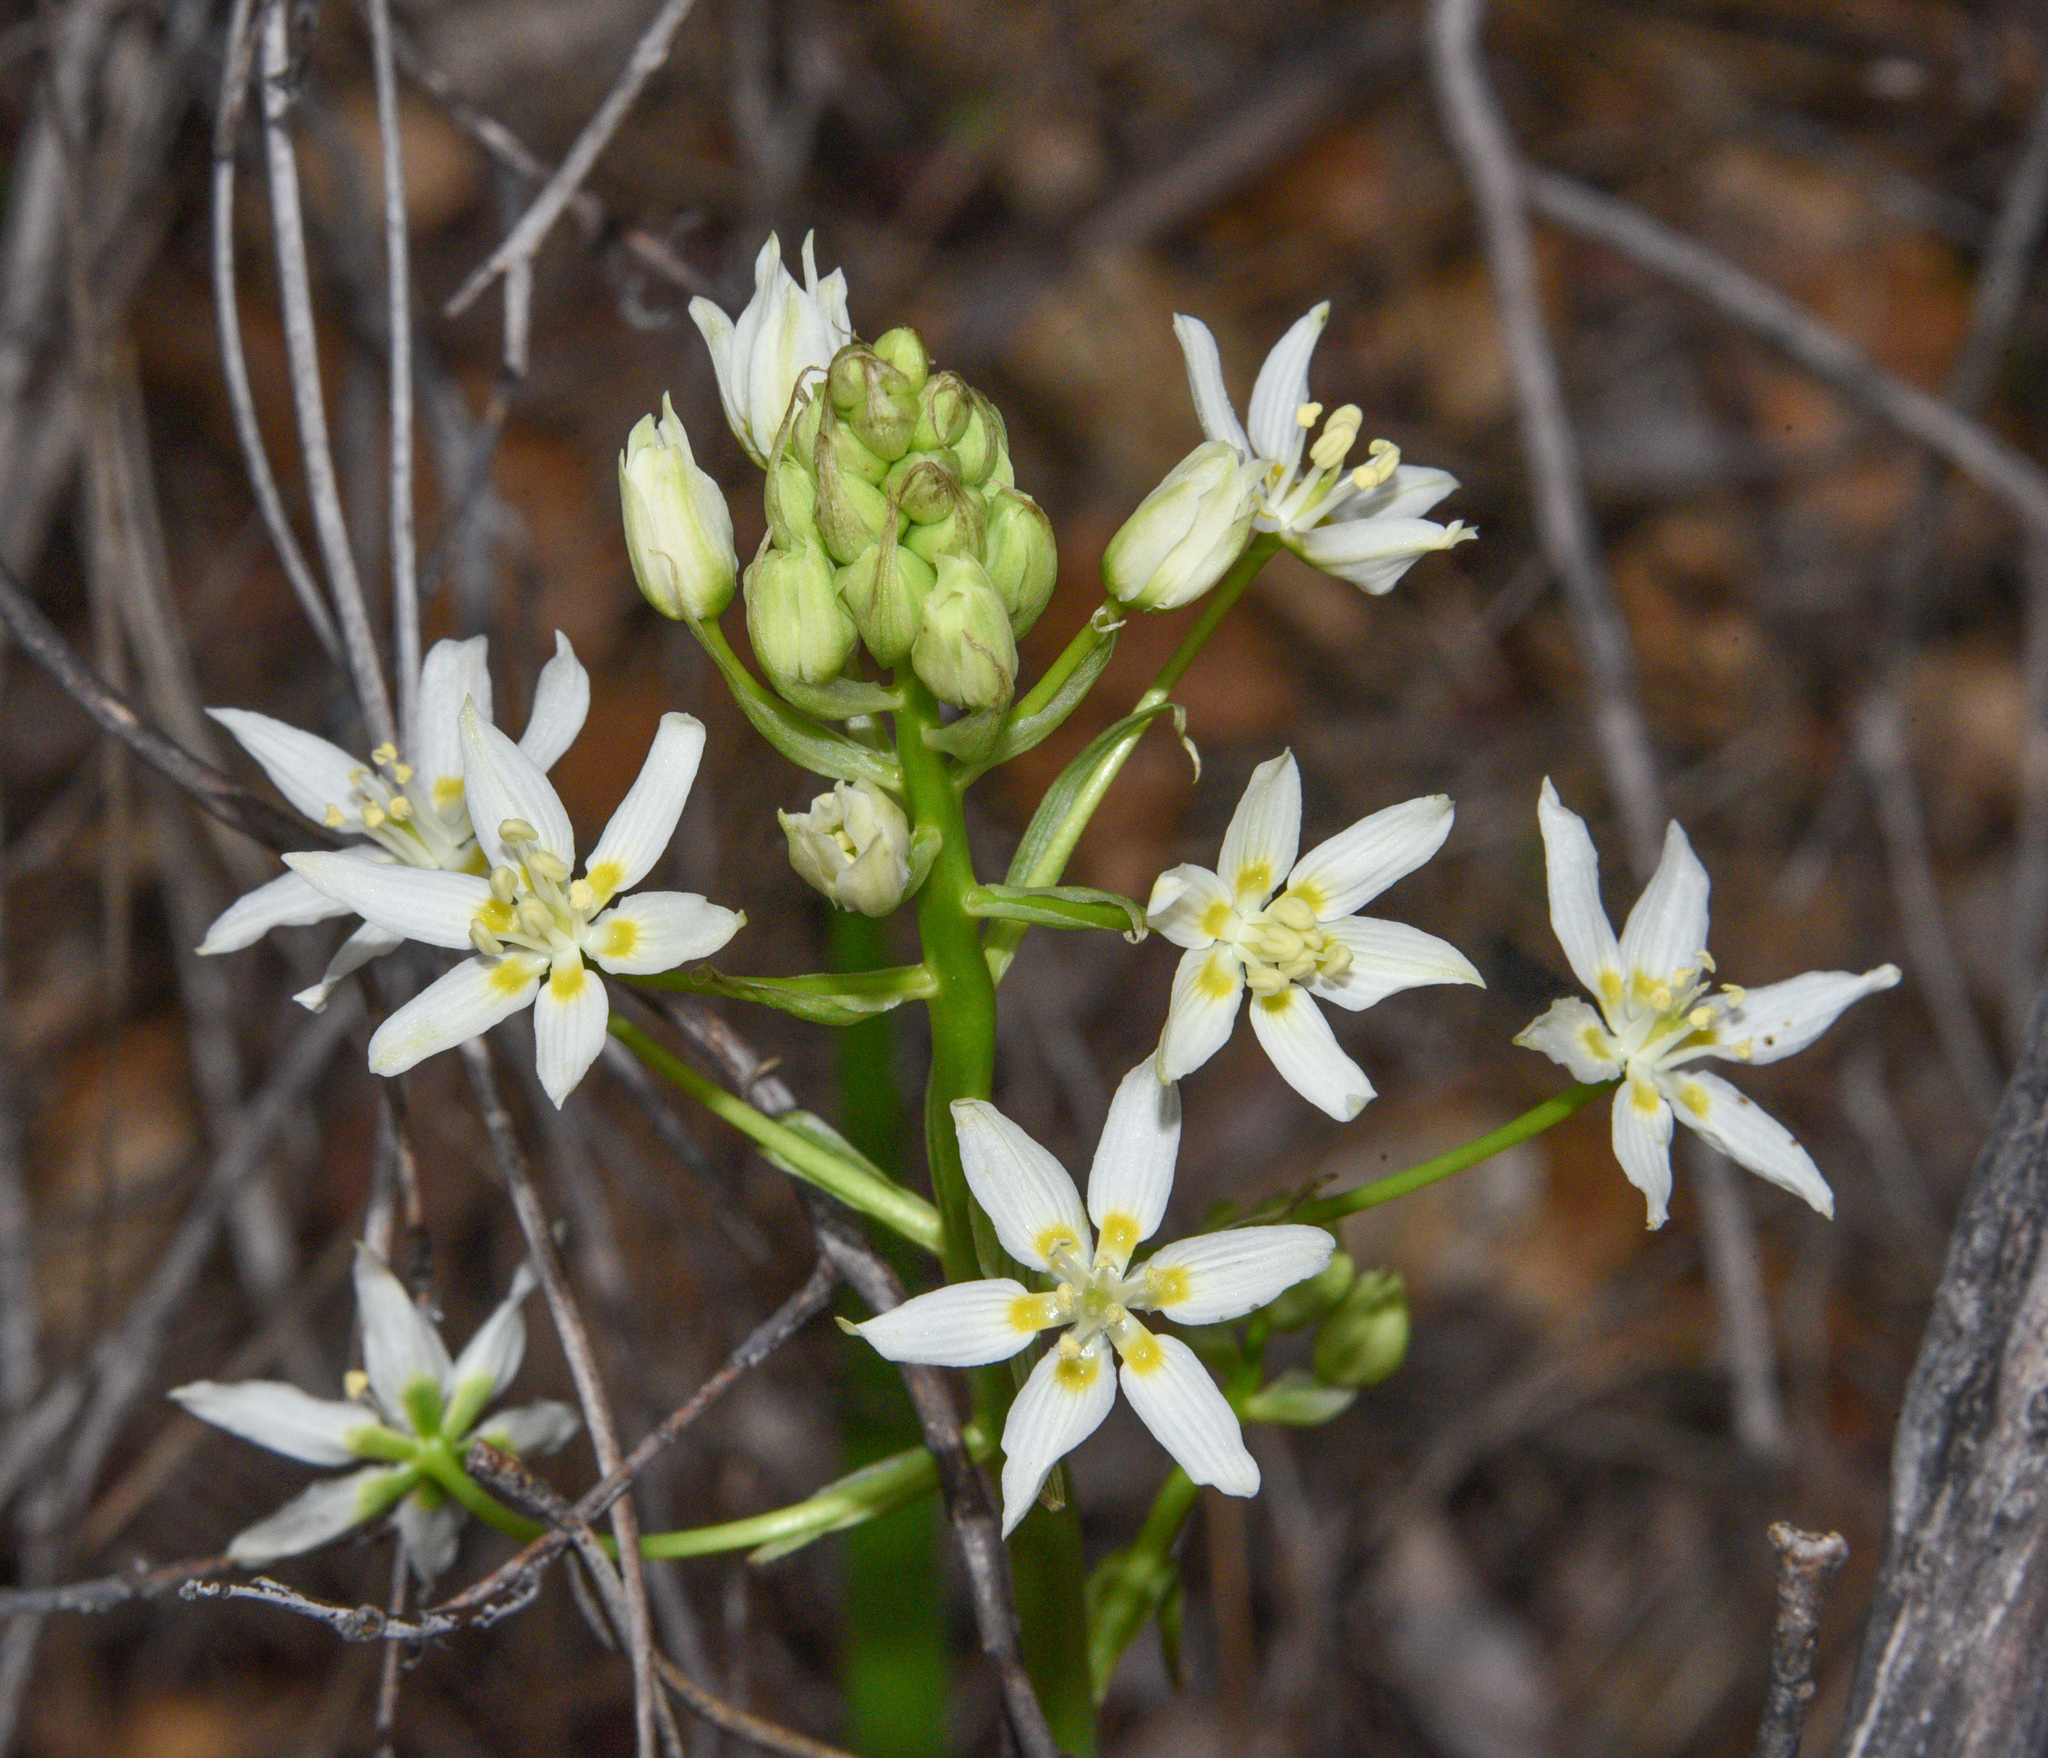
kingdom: Plantae
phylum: Tracheophyta
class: Liliopsida
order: Liliales
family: Melanthiaceae
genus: Toxicoscordion
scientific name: Toxicoscordion fremontii
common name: Fremont's death camas
